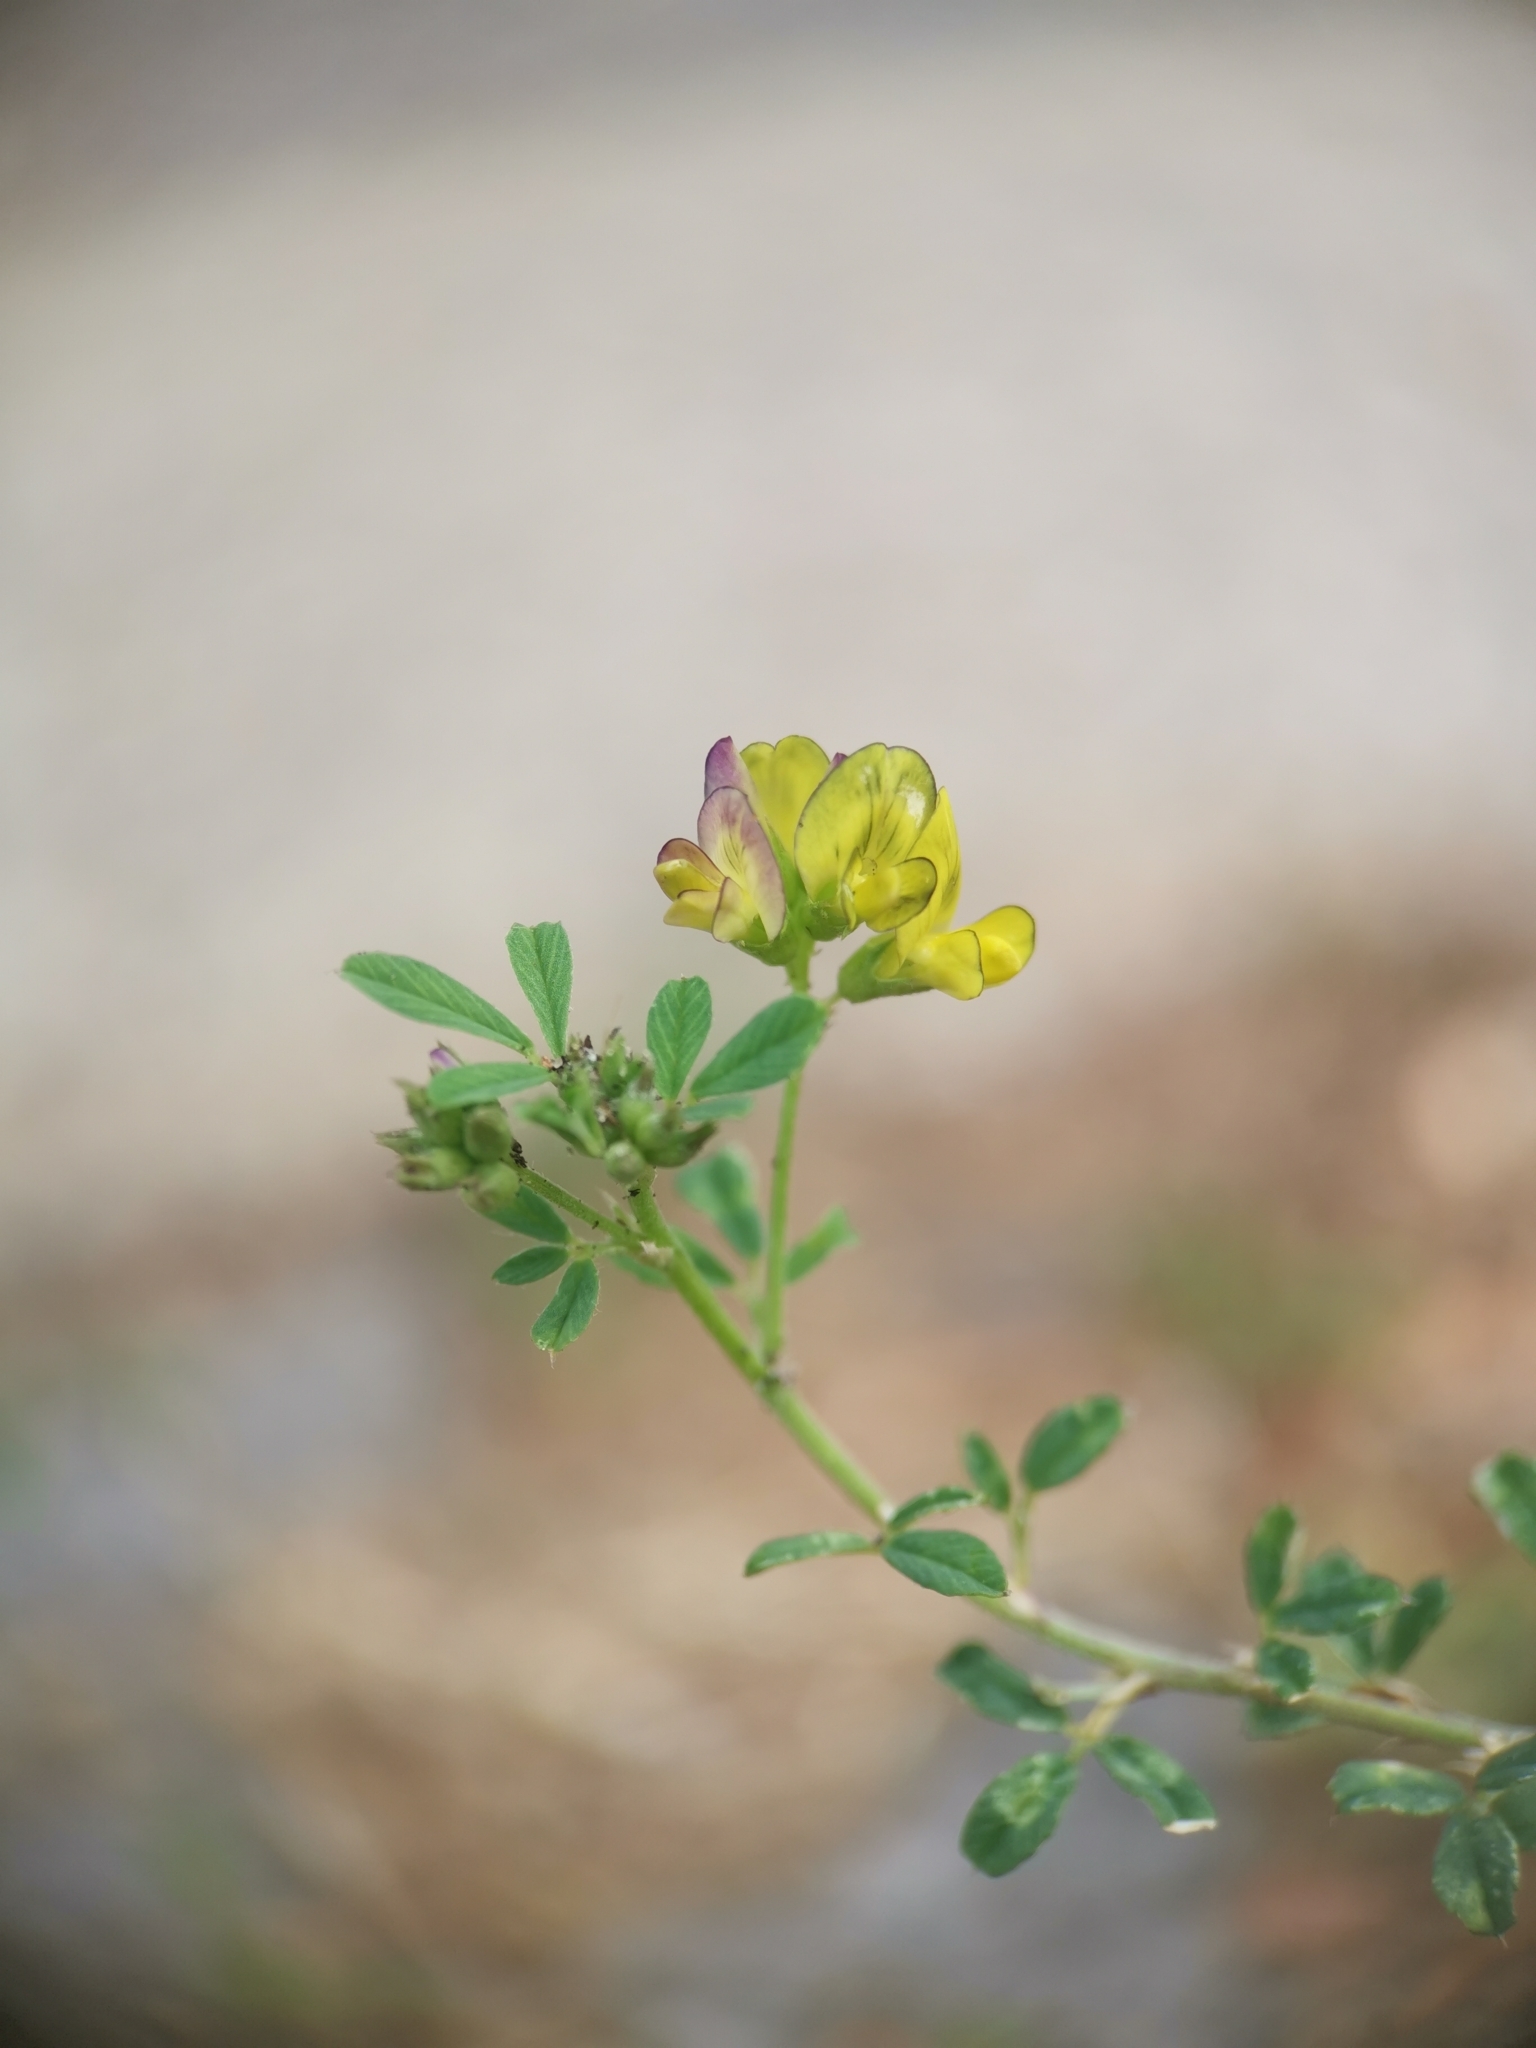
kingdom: Plantae
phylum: Tracheophyta
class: Magnoliopsida
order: Fabales
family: Fabaceae
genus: Medicago
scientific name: Medicago varia
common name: Sand lucerne
